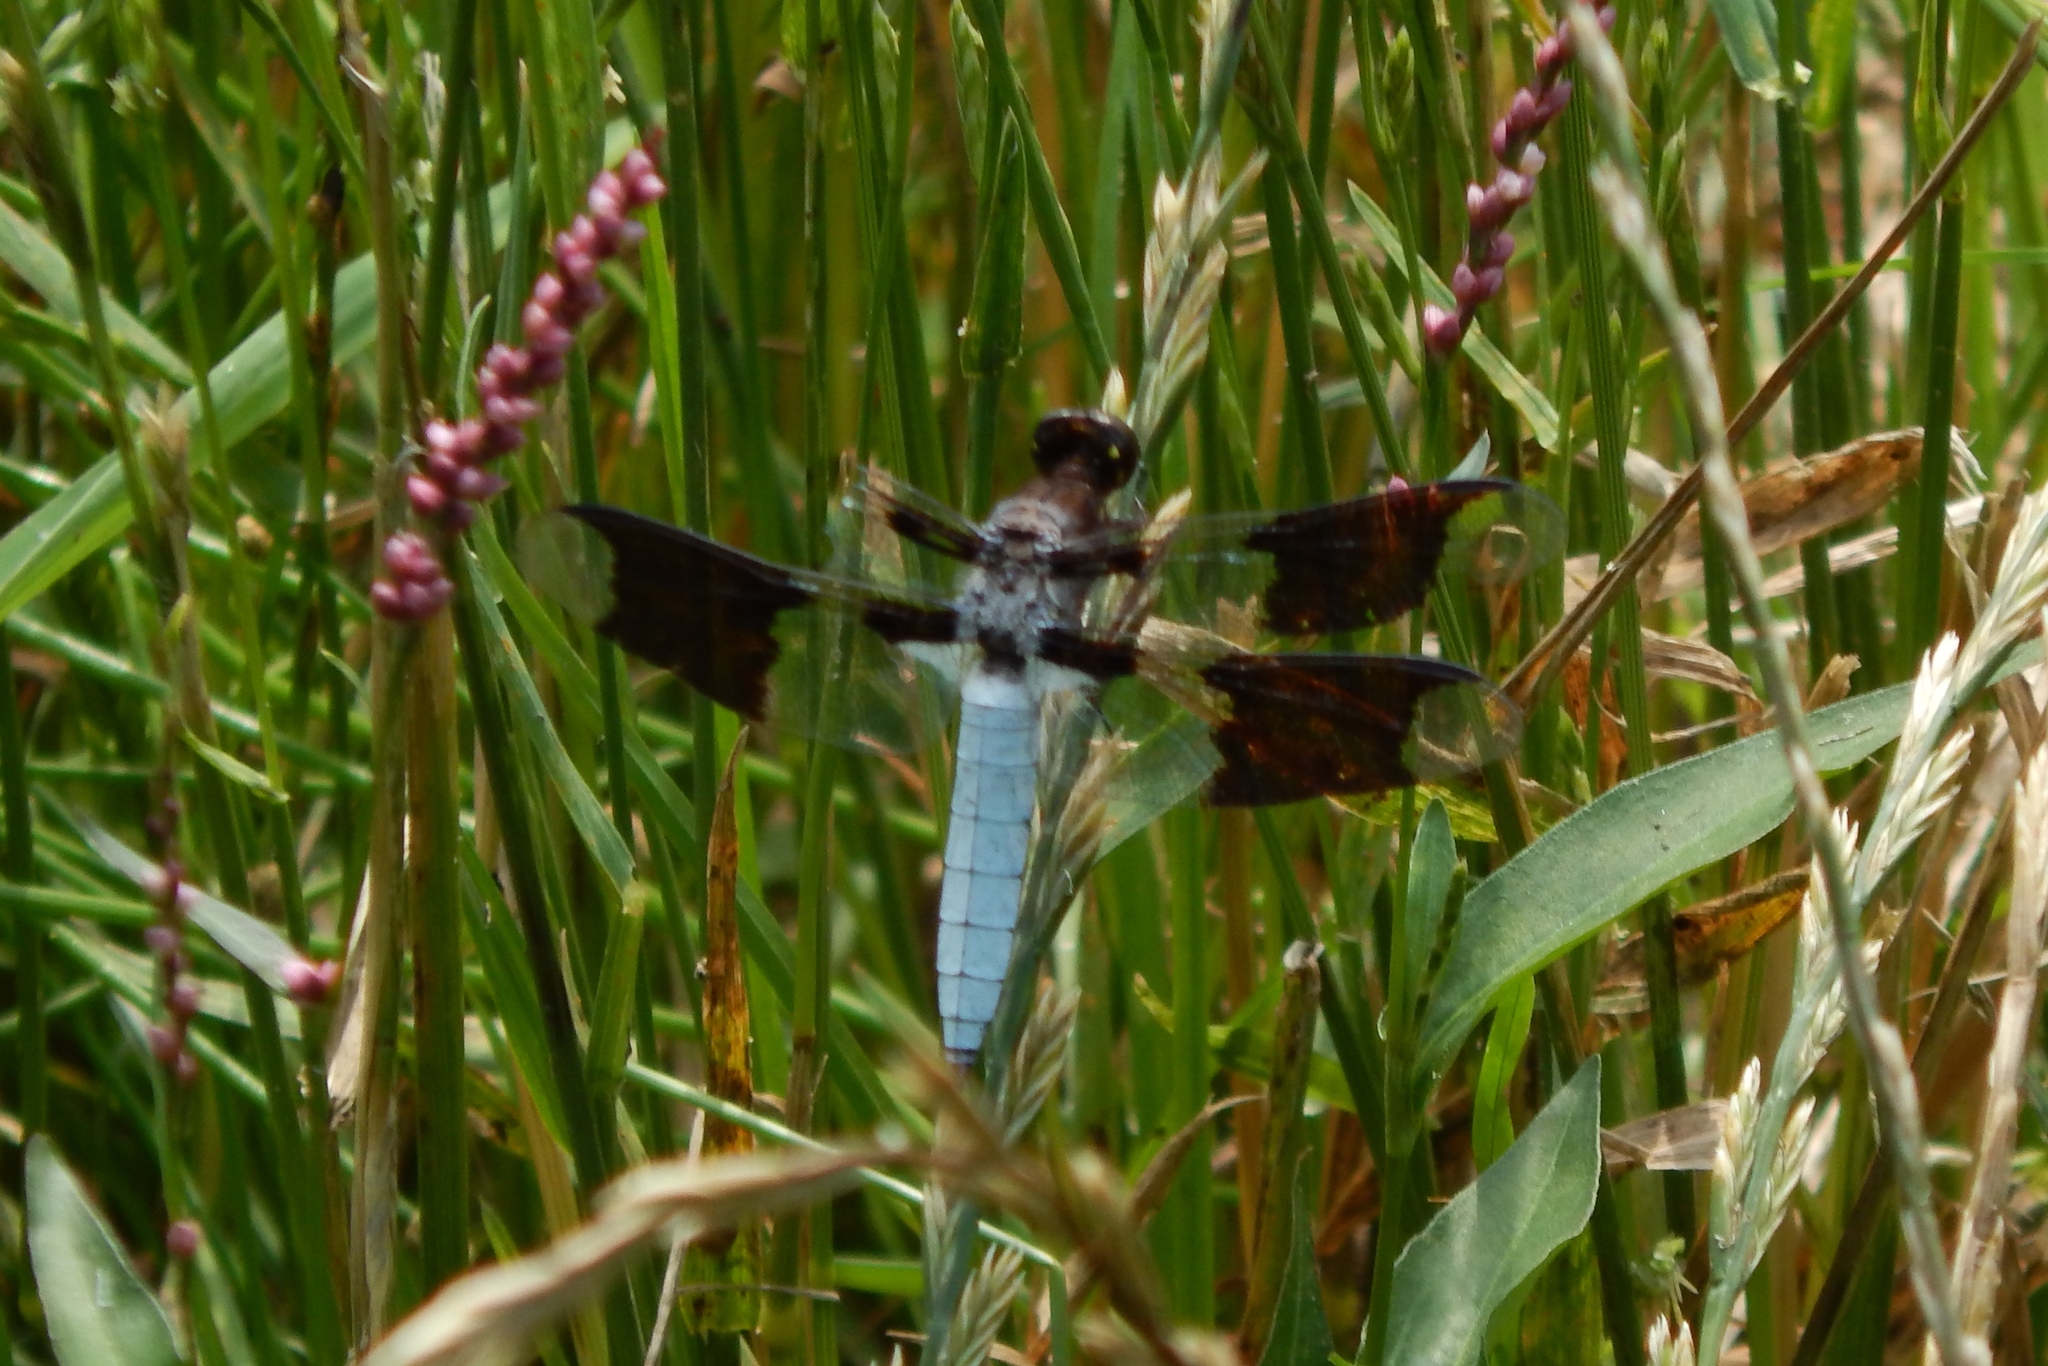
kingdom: Animalia
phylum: Arthropoda
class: Insecta
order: Odonata
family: Libellulidae
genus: Plathemis
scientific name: Plathemis lydia
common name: Common whitetail
